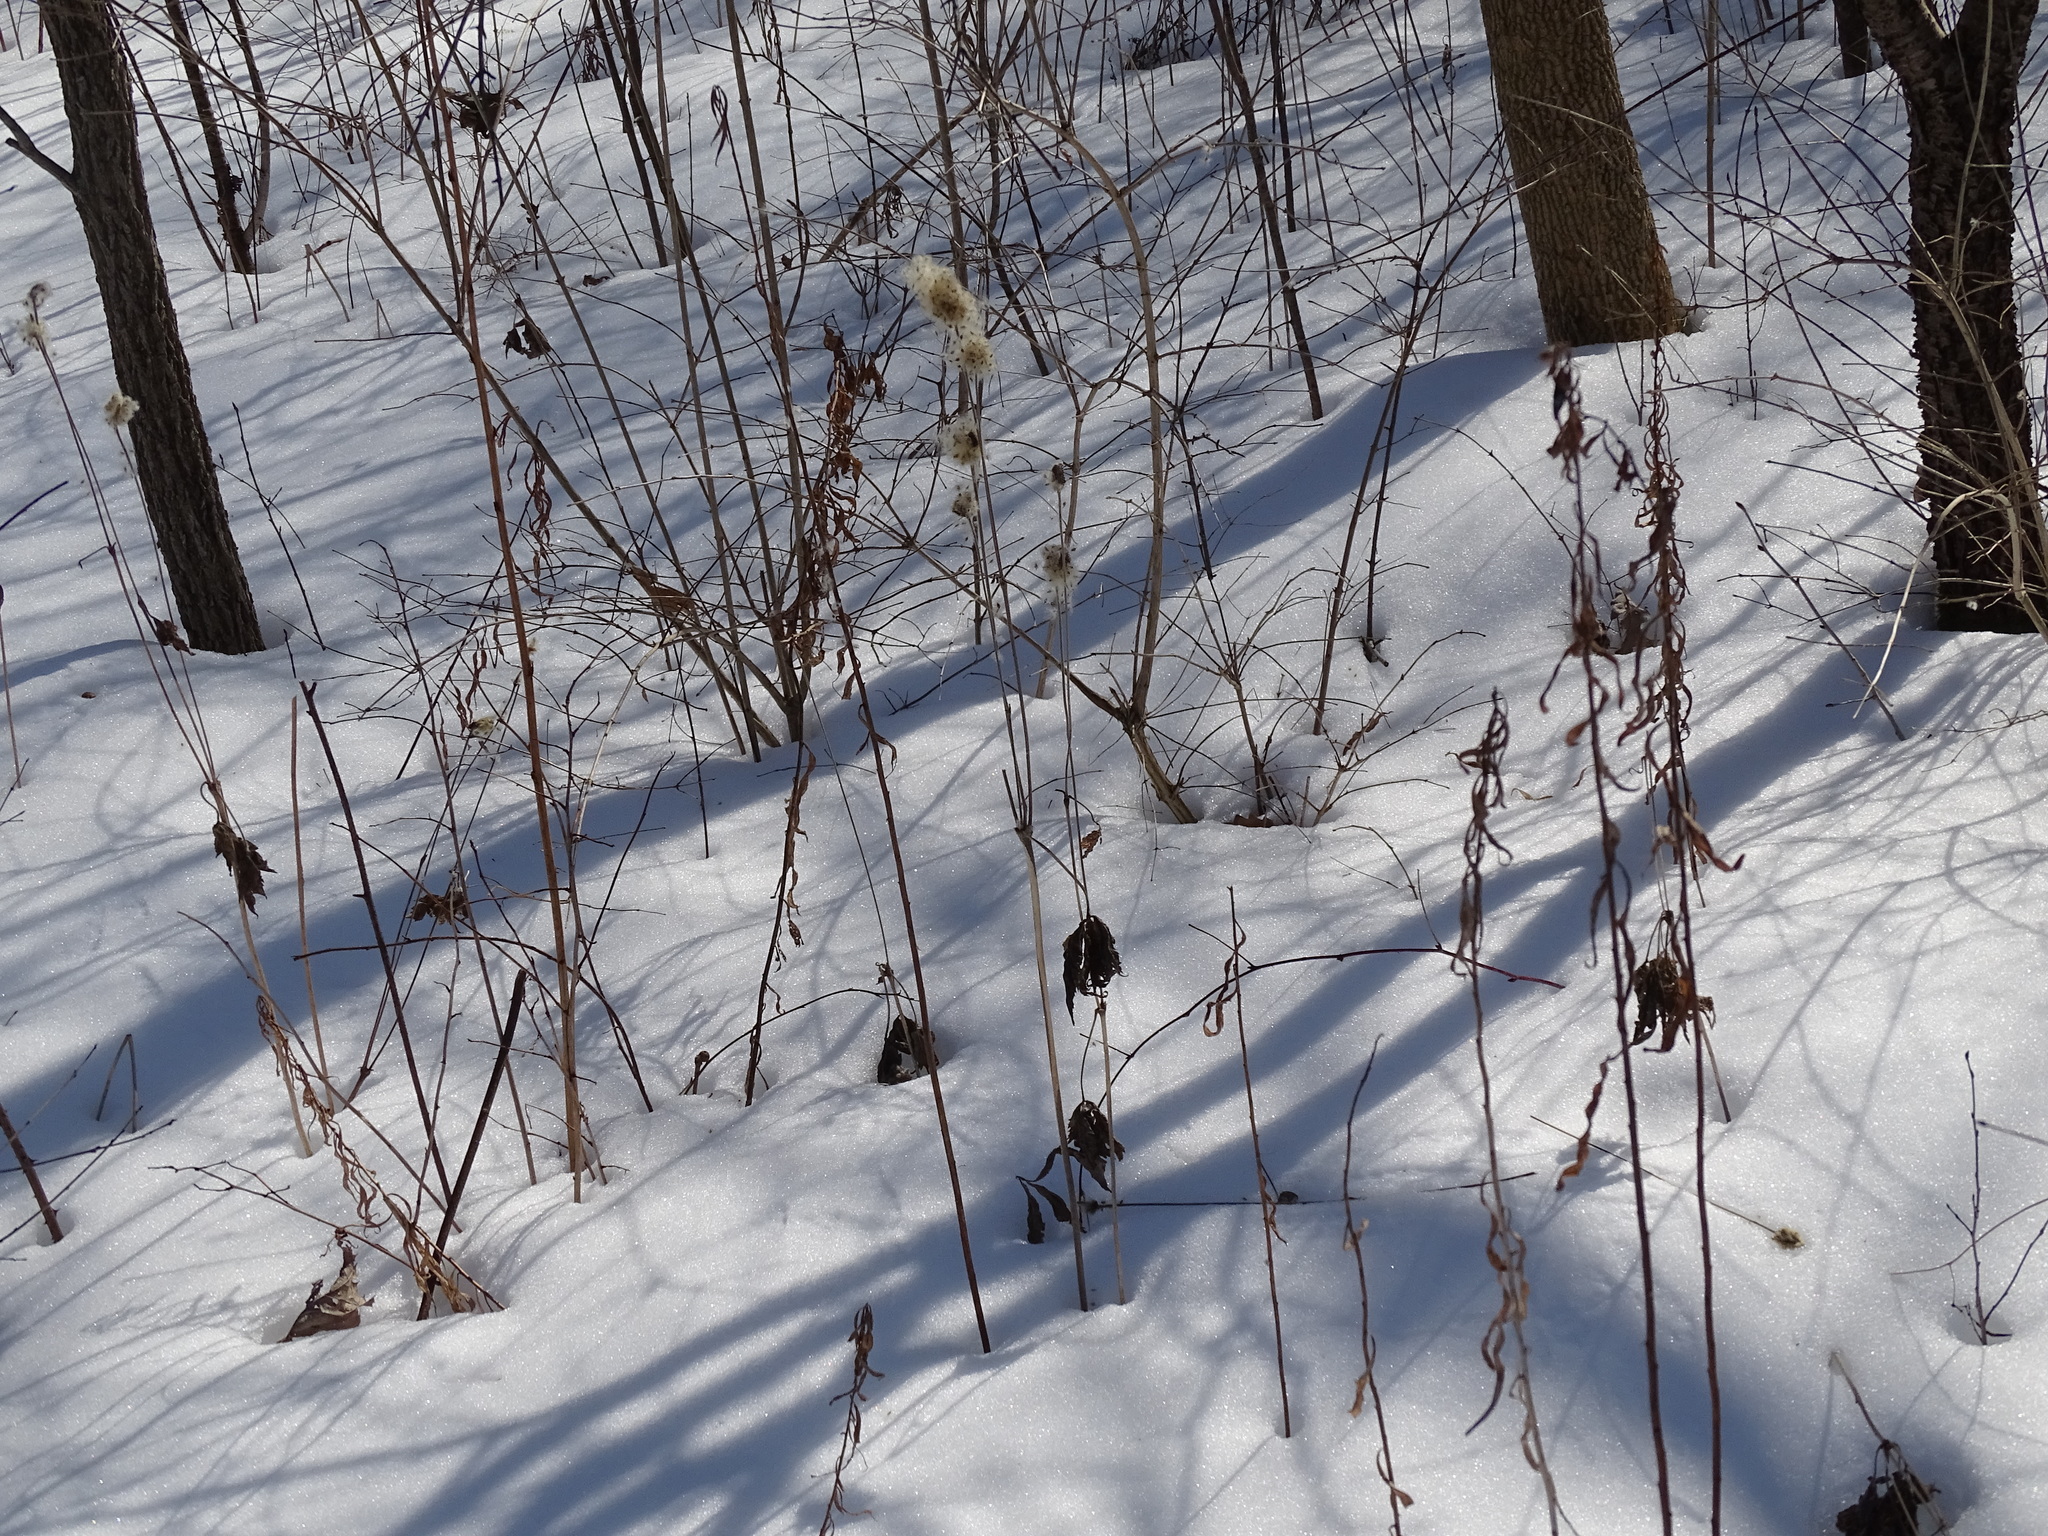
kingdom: Plantae
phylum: Tracheophyta
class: Magnoliopsida
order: Ranunculales
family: Ranunculaceae
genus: Anemone
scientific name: Anemone virginiana
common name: Tall anemone
